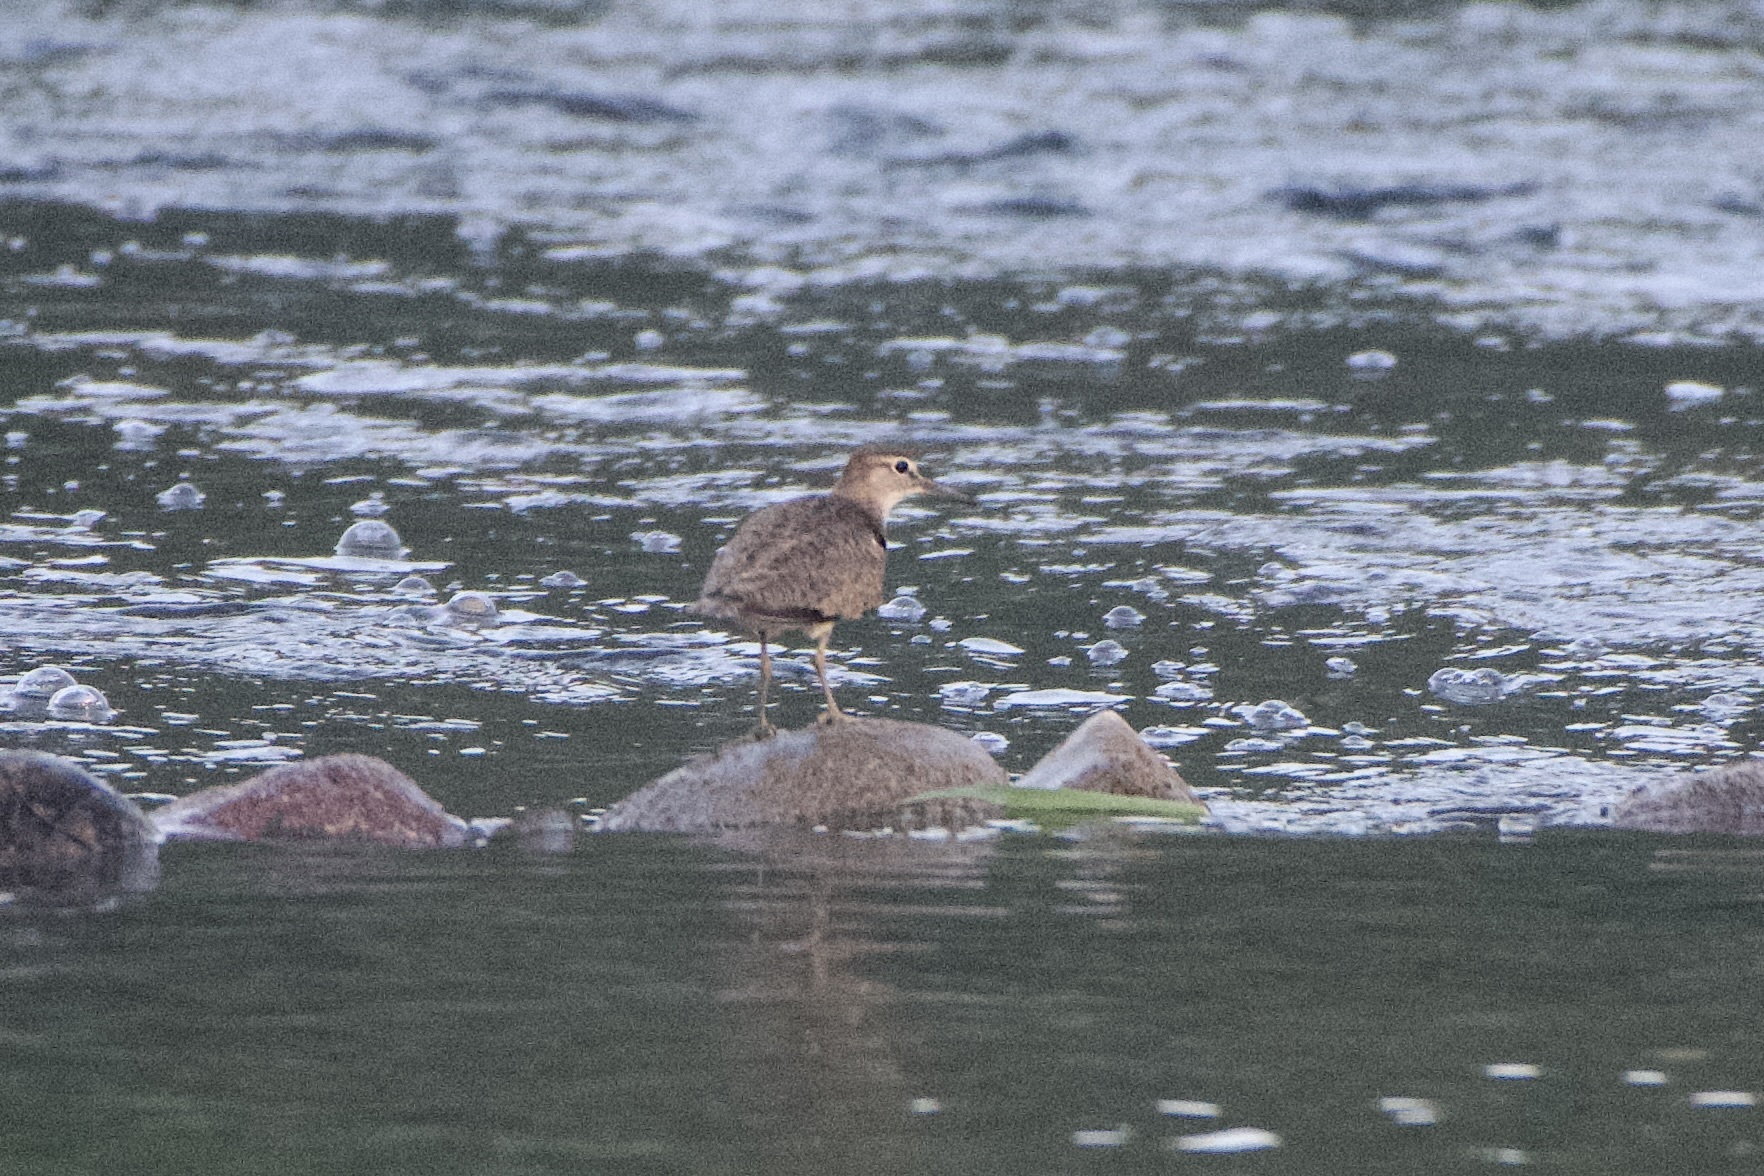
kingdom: Animalia
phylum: Chordata
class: Aves
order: Charadriiformes
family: Scolopacidae
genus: Actitis
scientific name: Actitis hypoleucos
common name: Common sandpiper
